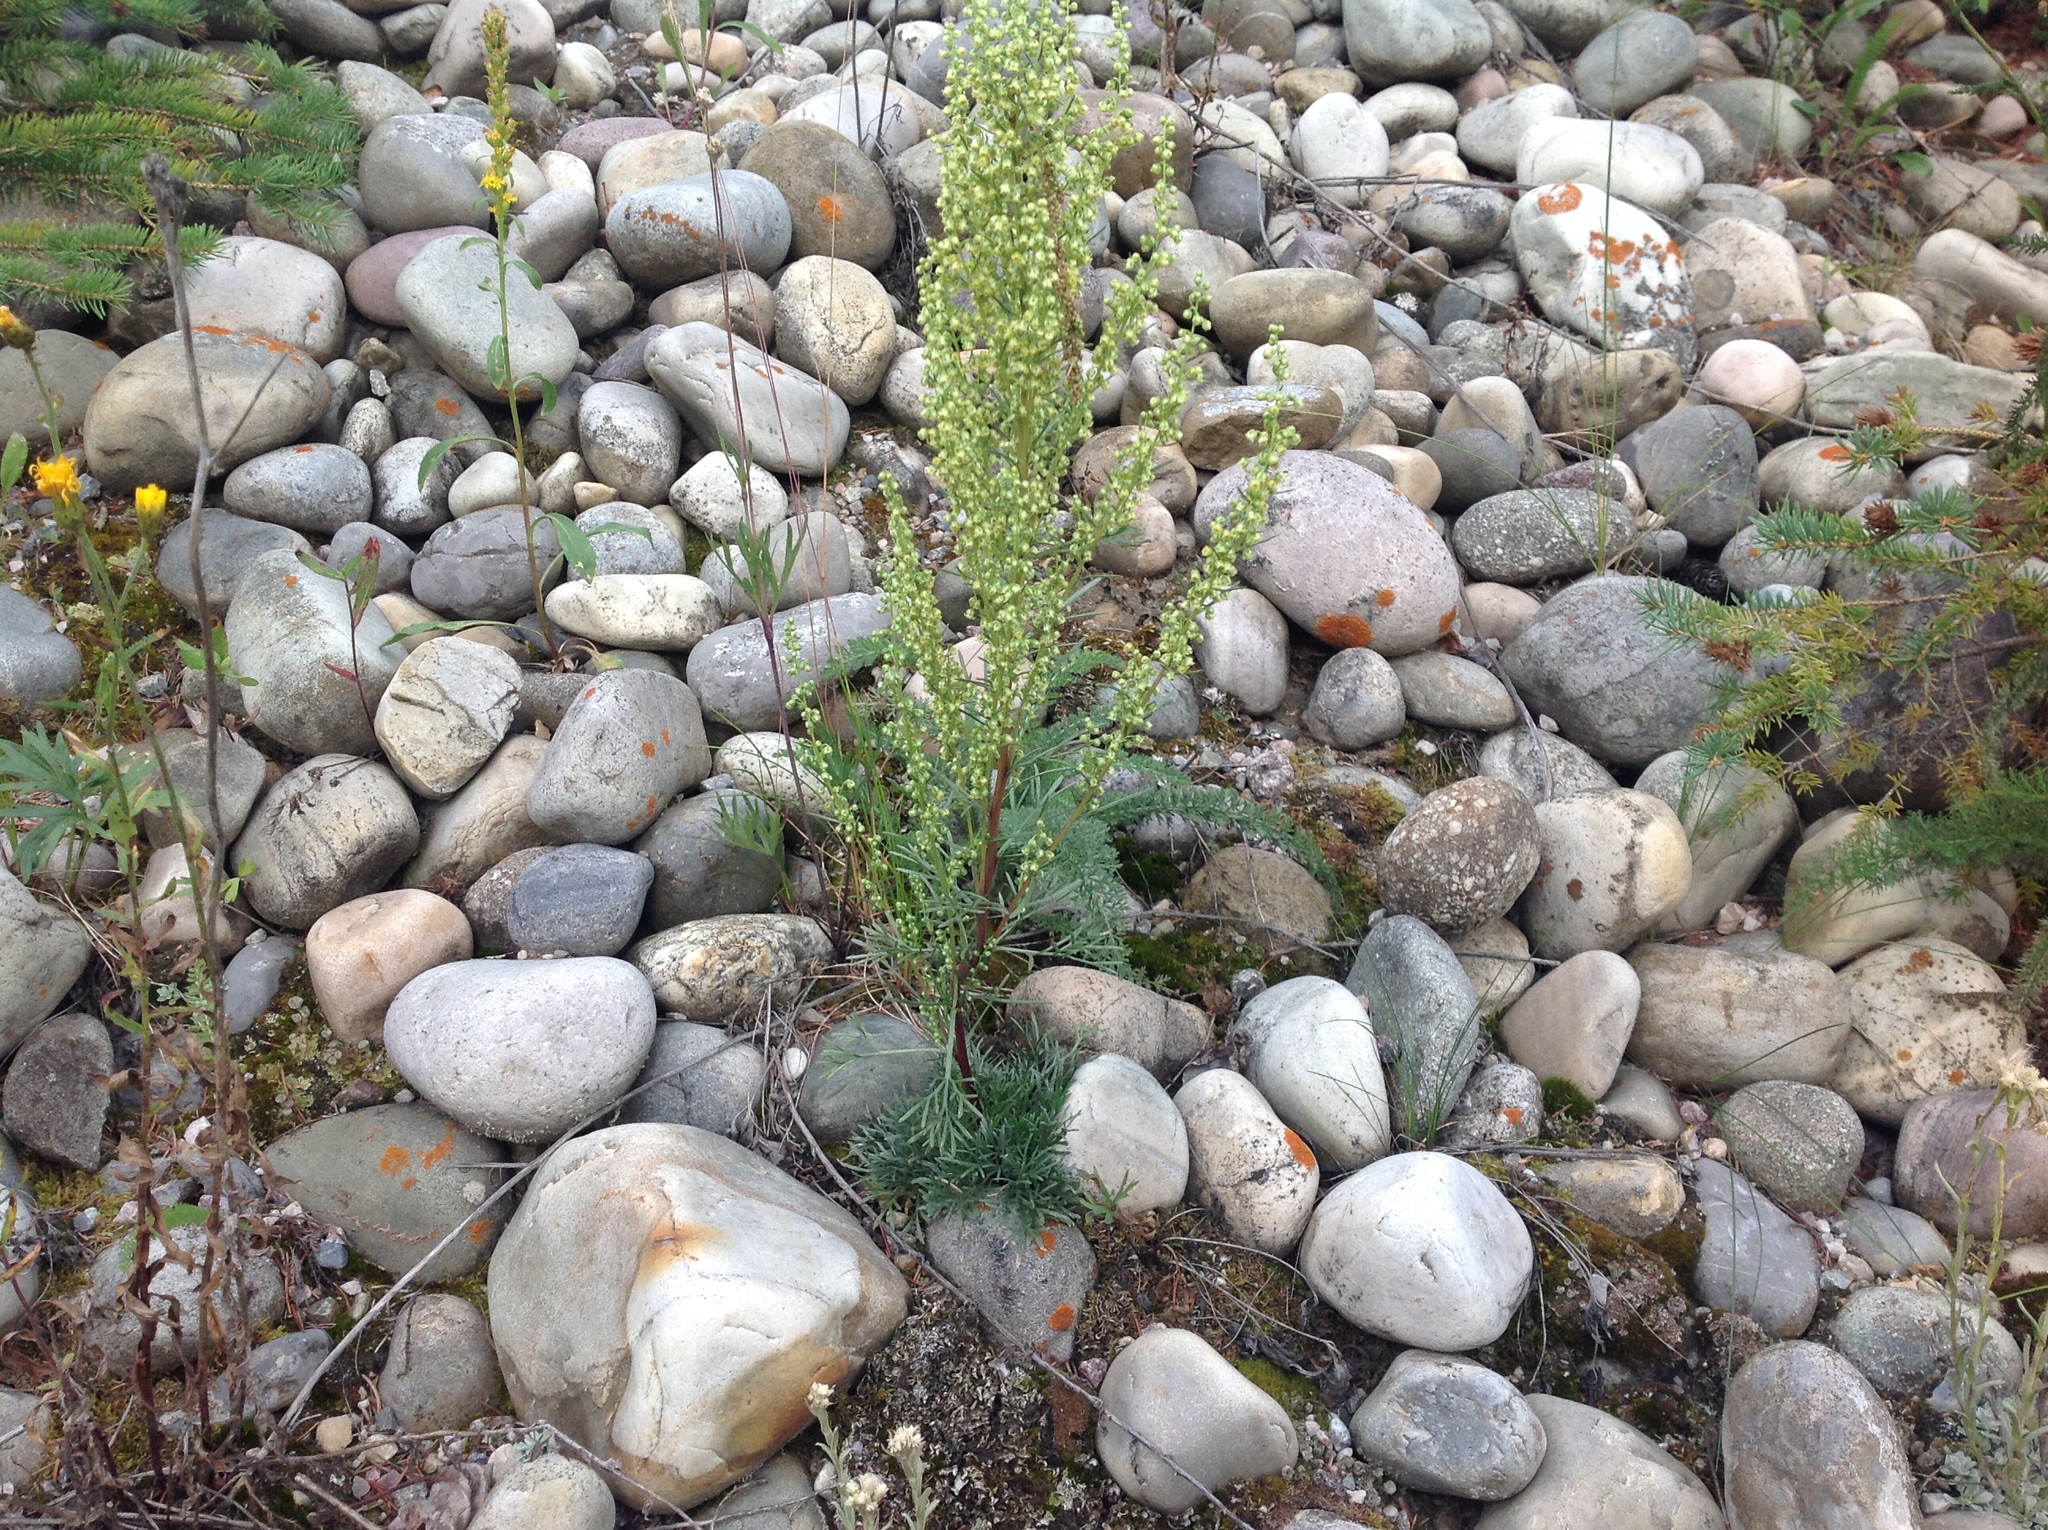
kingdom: Plantae
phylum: Tracheophyta
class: Magnoliopsida
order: Asterales
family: Asteraceae
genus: Artemisia
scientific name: Artemisia campestris
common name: Field wormwood
